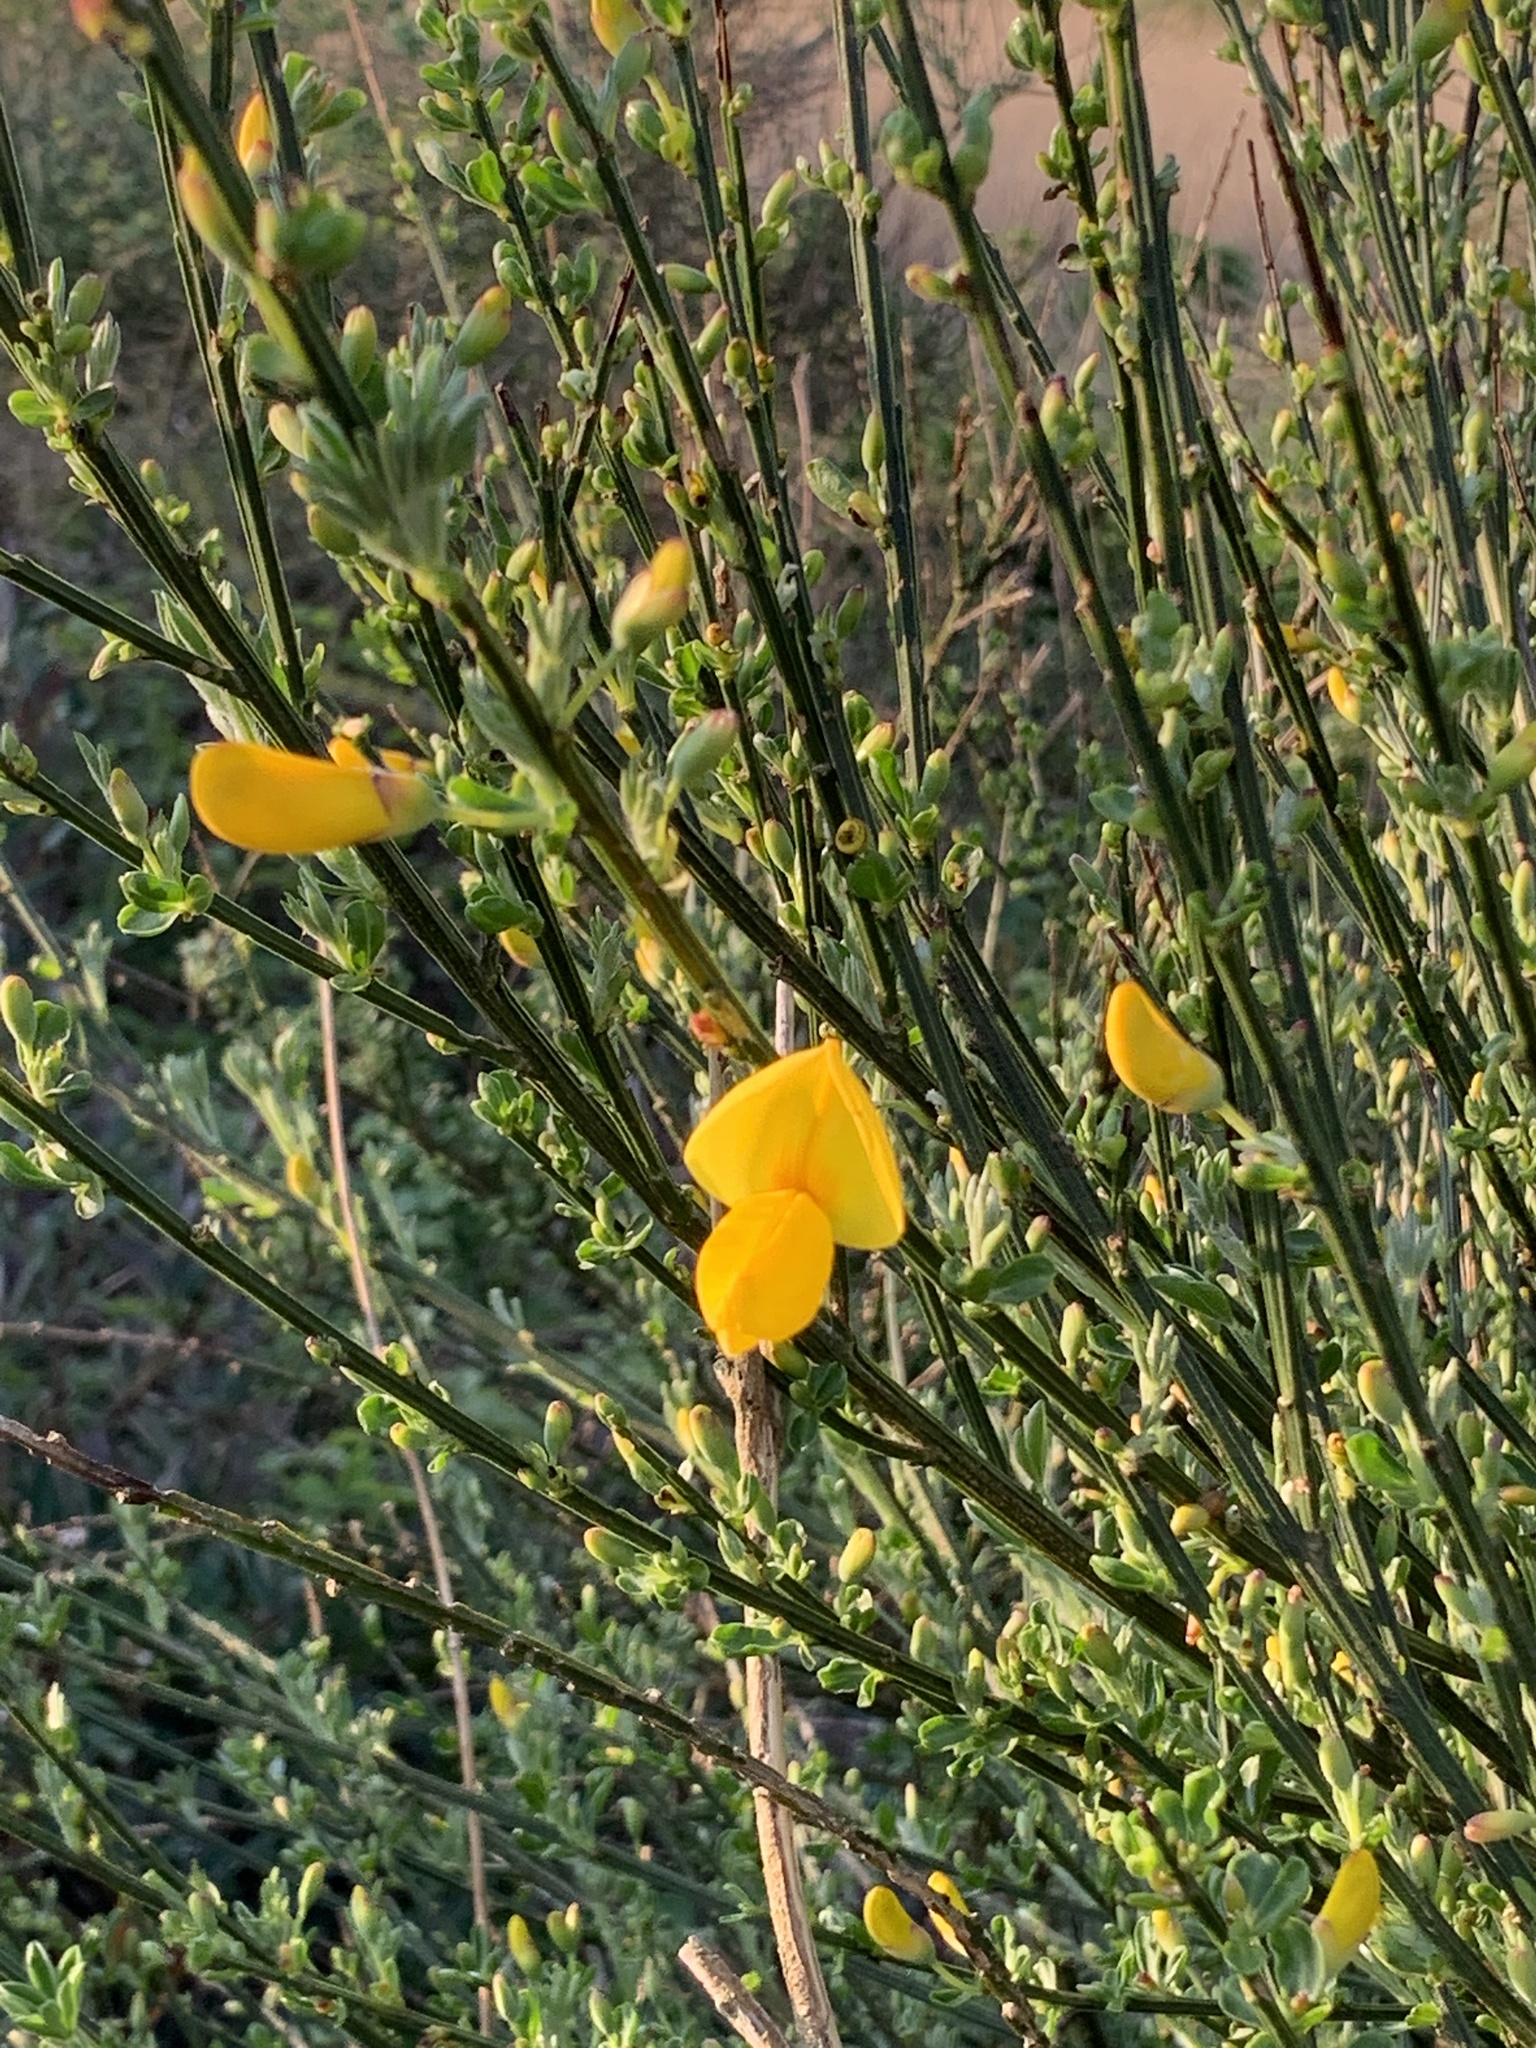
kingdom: Plantae
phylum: Tracheophyta
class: Magnoliopsida
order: Fabales
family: Fabaceae
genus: Cytisus
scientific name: Cytisus scoparius
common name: Scotch broom
